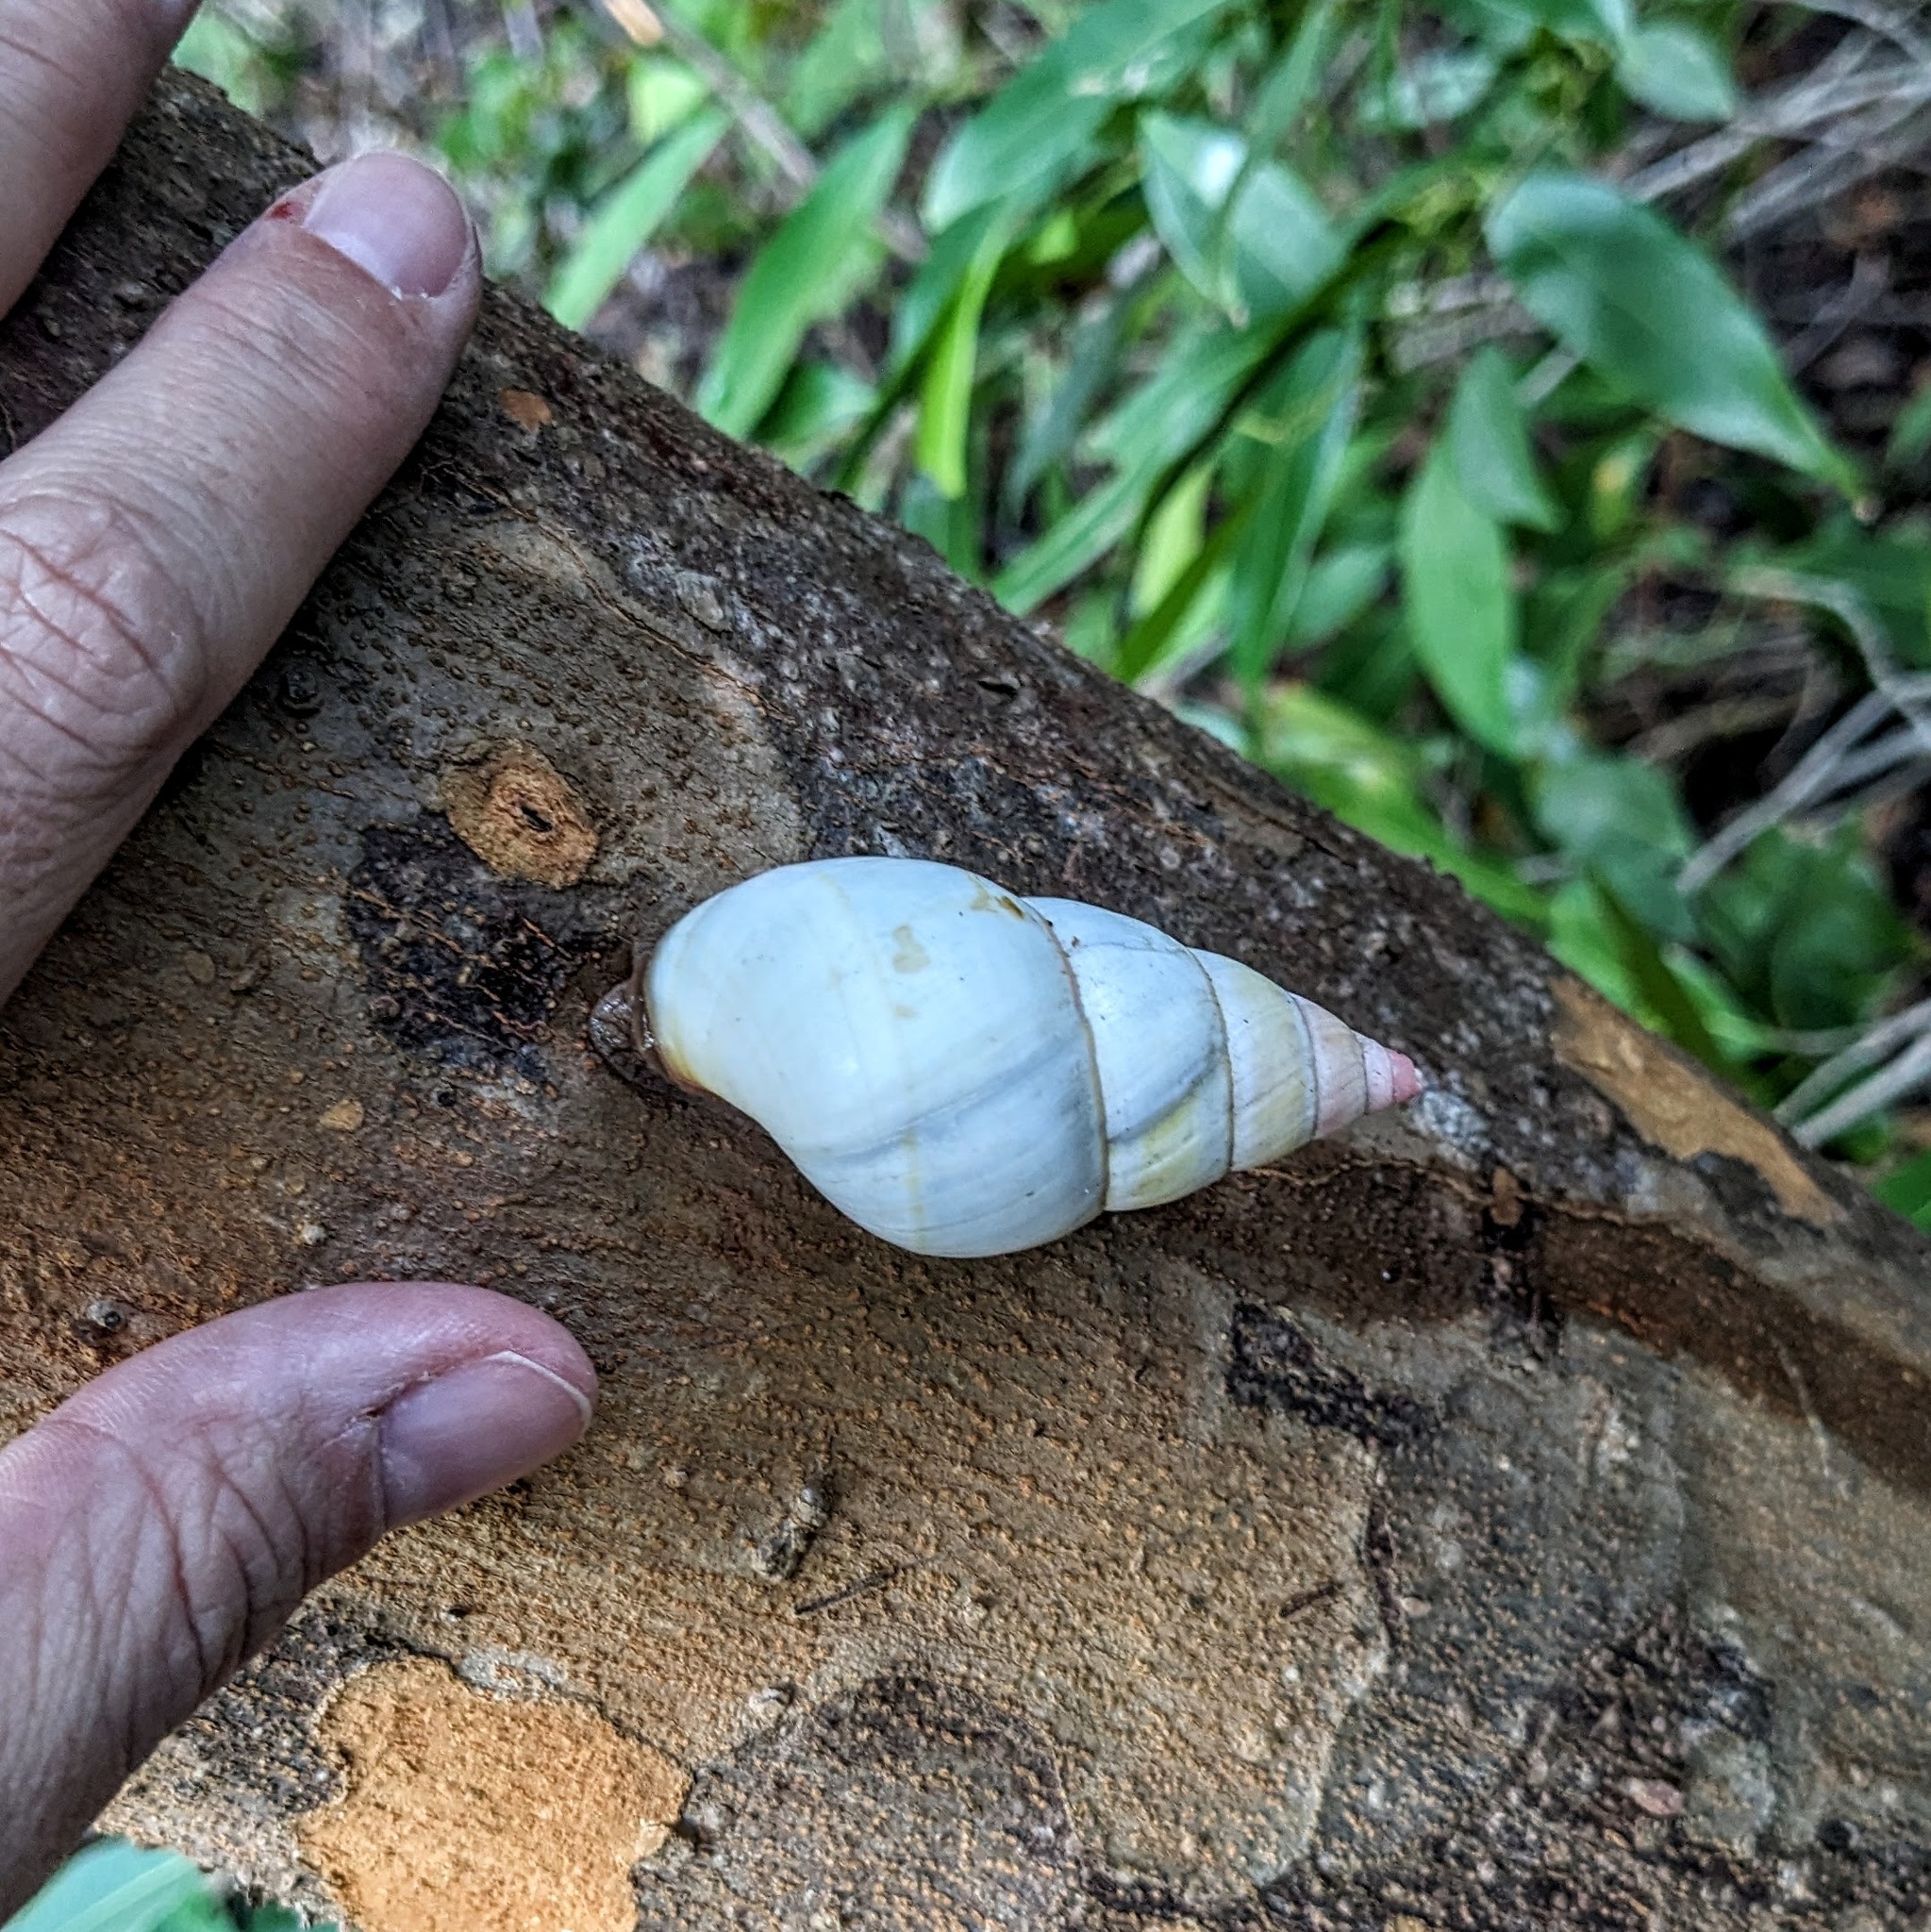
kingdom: Animalia
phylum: Mollusca
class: Gastropoda
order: Stylommatophora
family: Orthalicidae
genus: Liguus
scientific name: Liguus fasciatus
